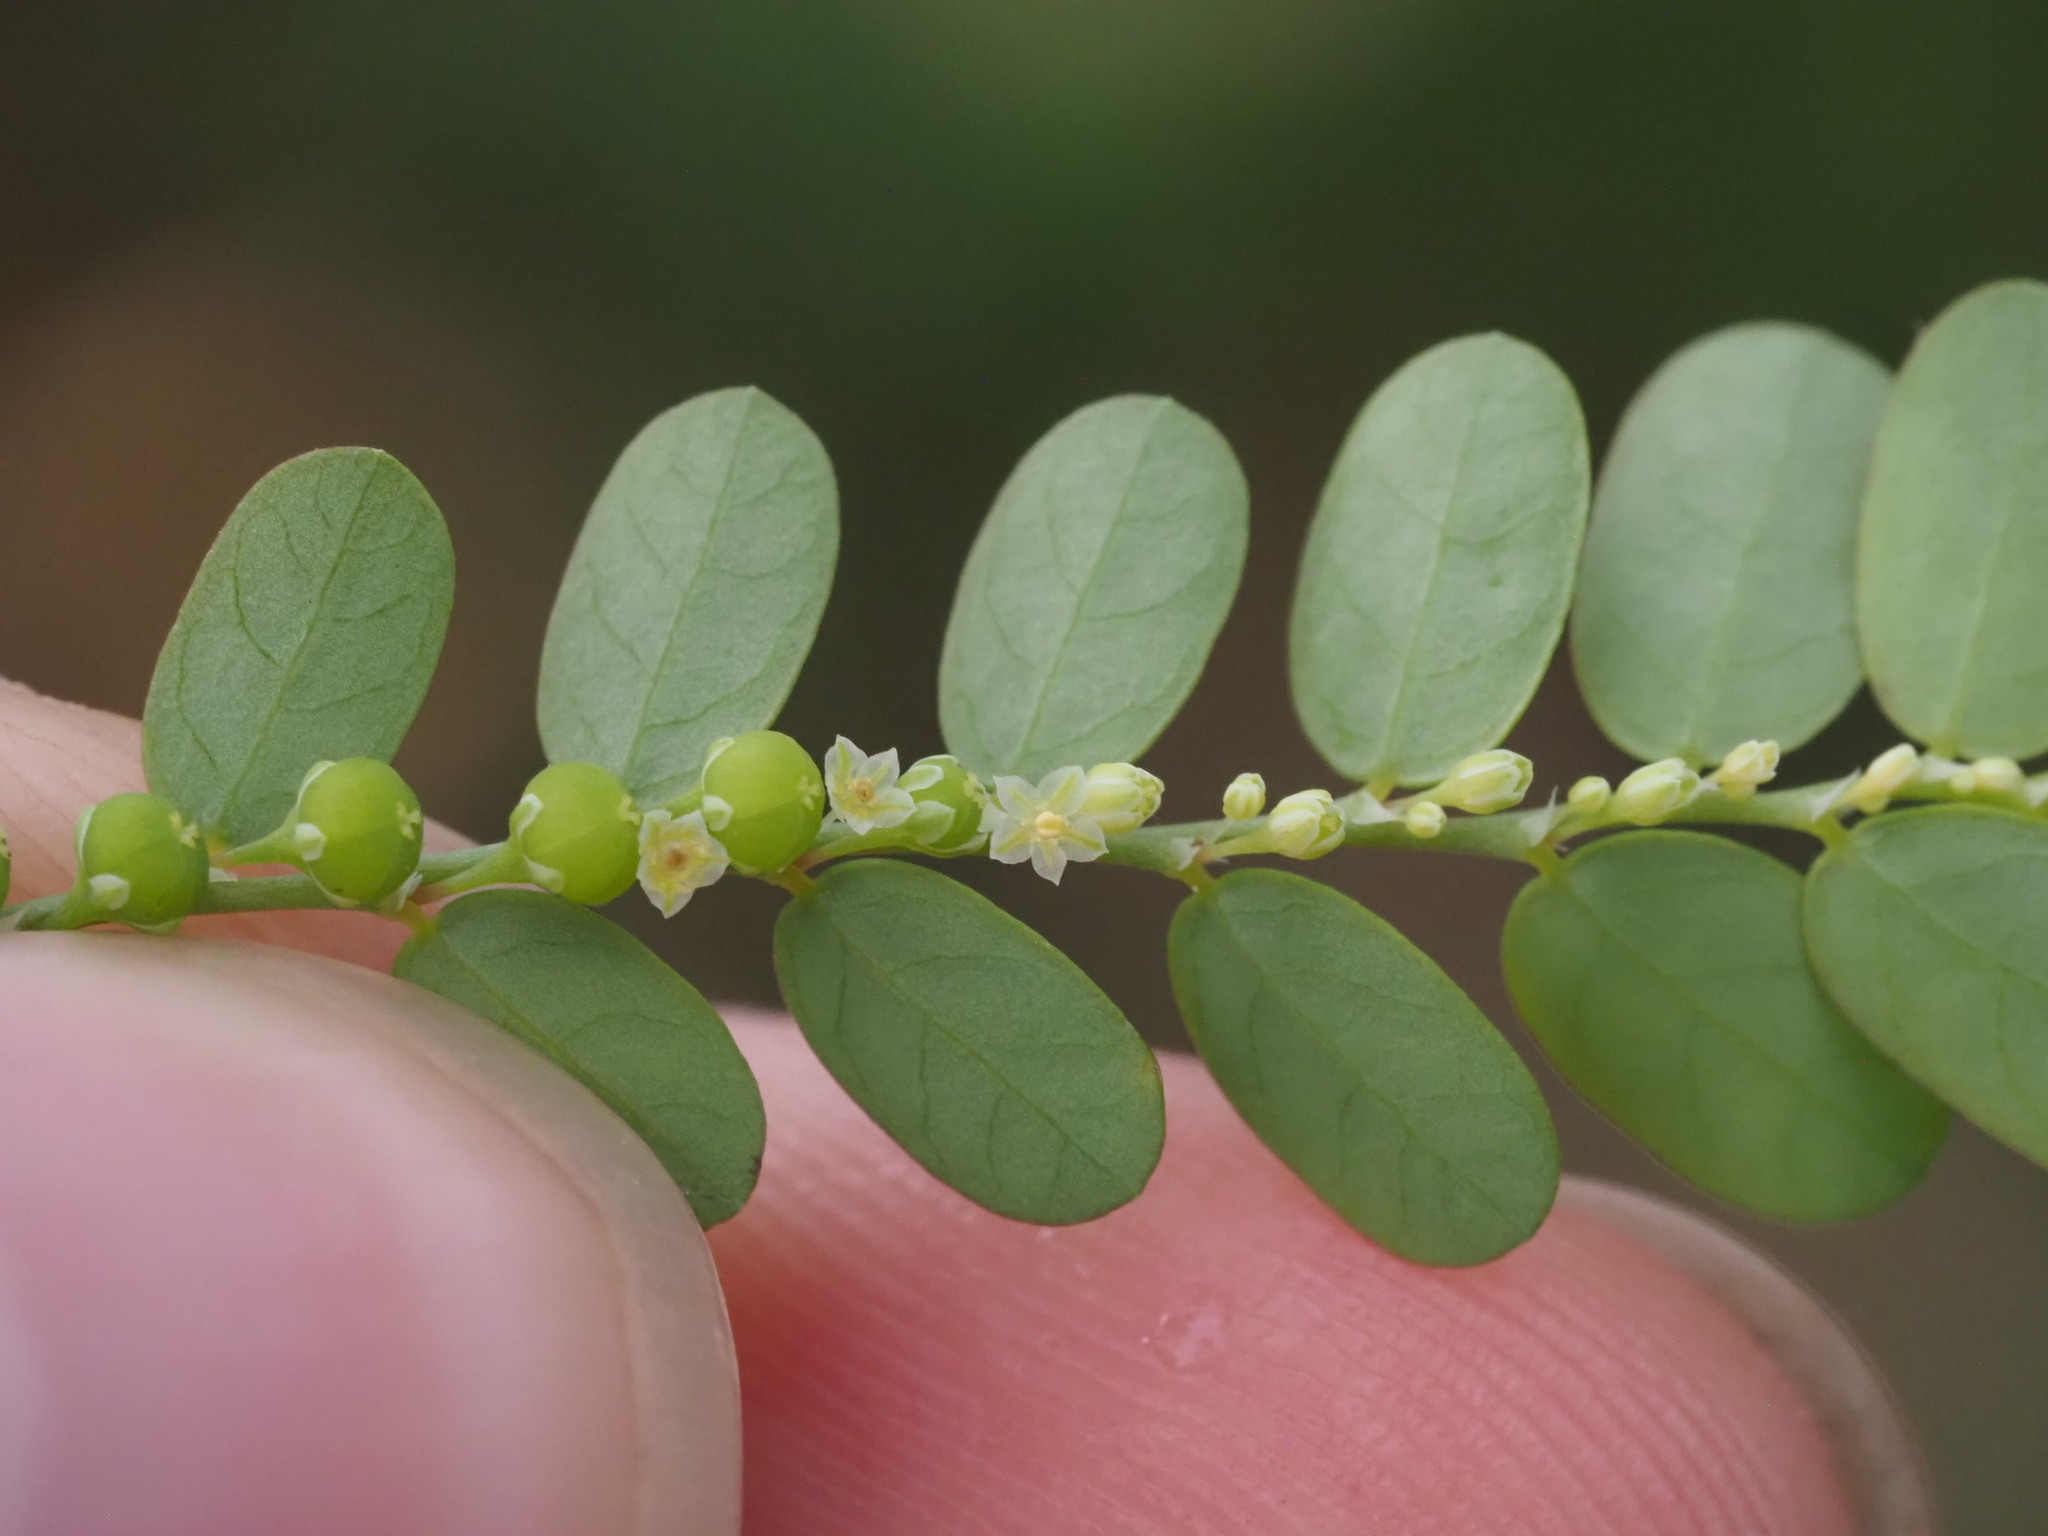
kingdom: Plantae
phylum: Tracheophyta
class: Magnoliopsida
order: Malpighiales
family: Phyllanthaceae
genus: Phyllanthus
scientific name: Phyllanthus amarus
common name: Carry me seed
